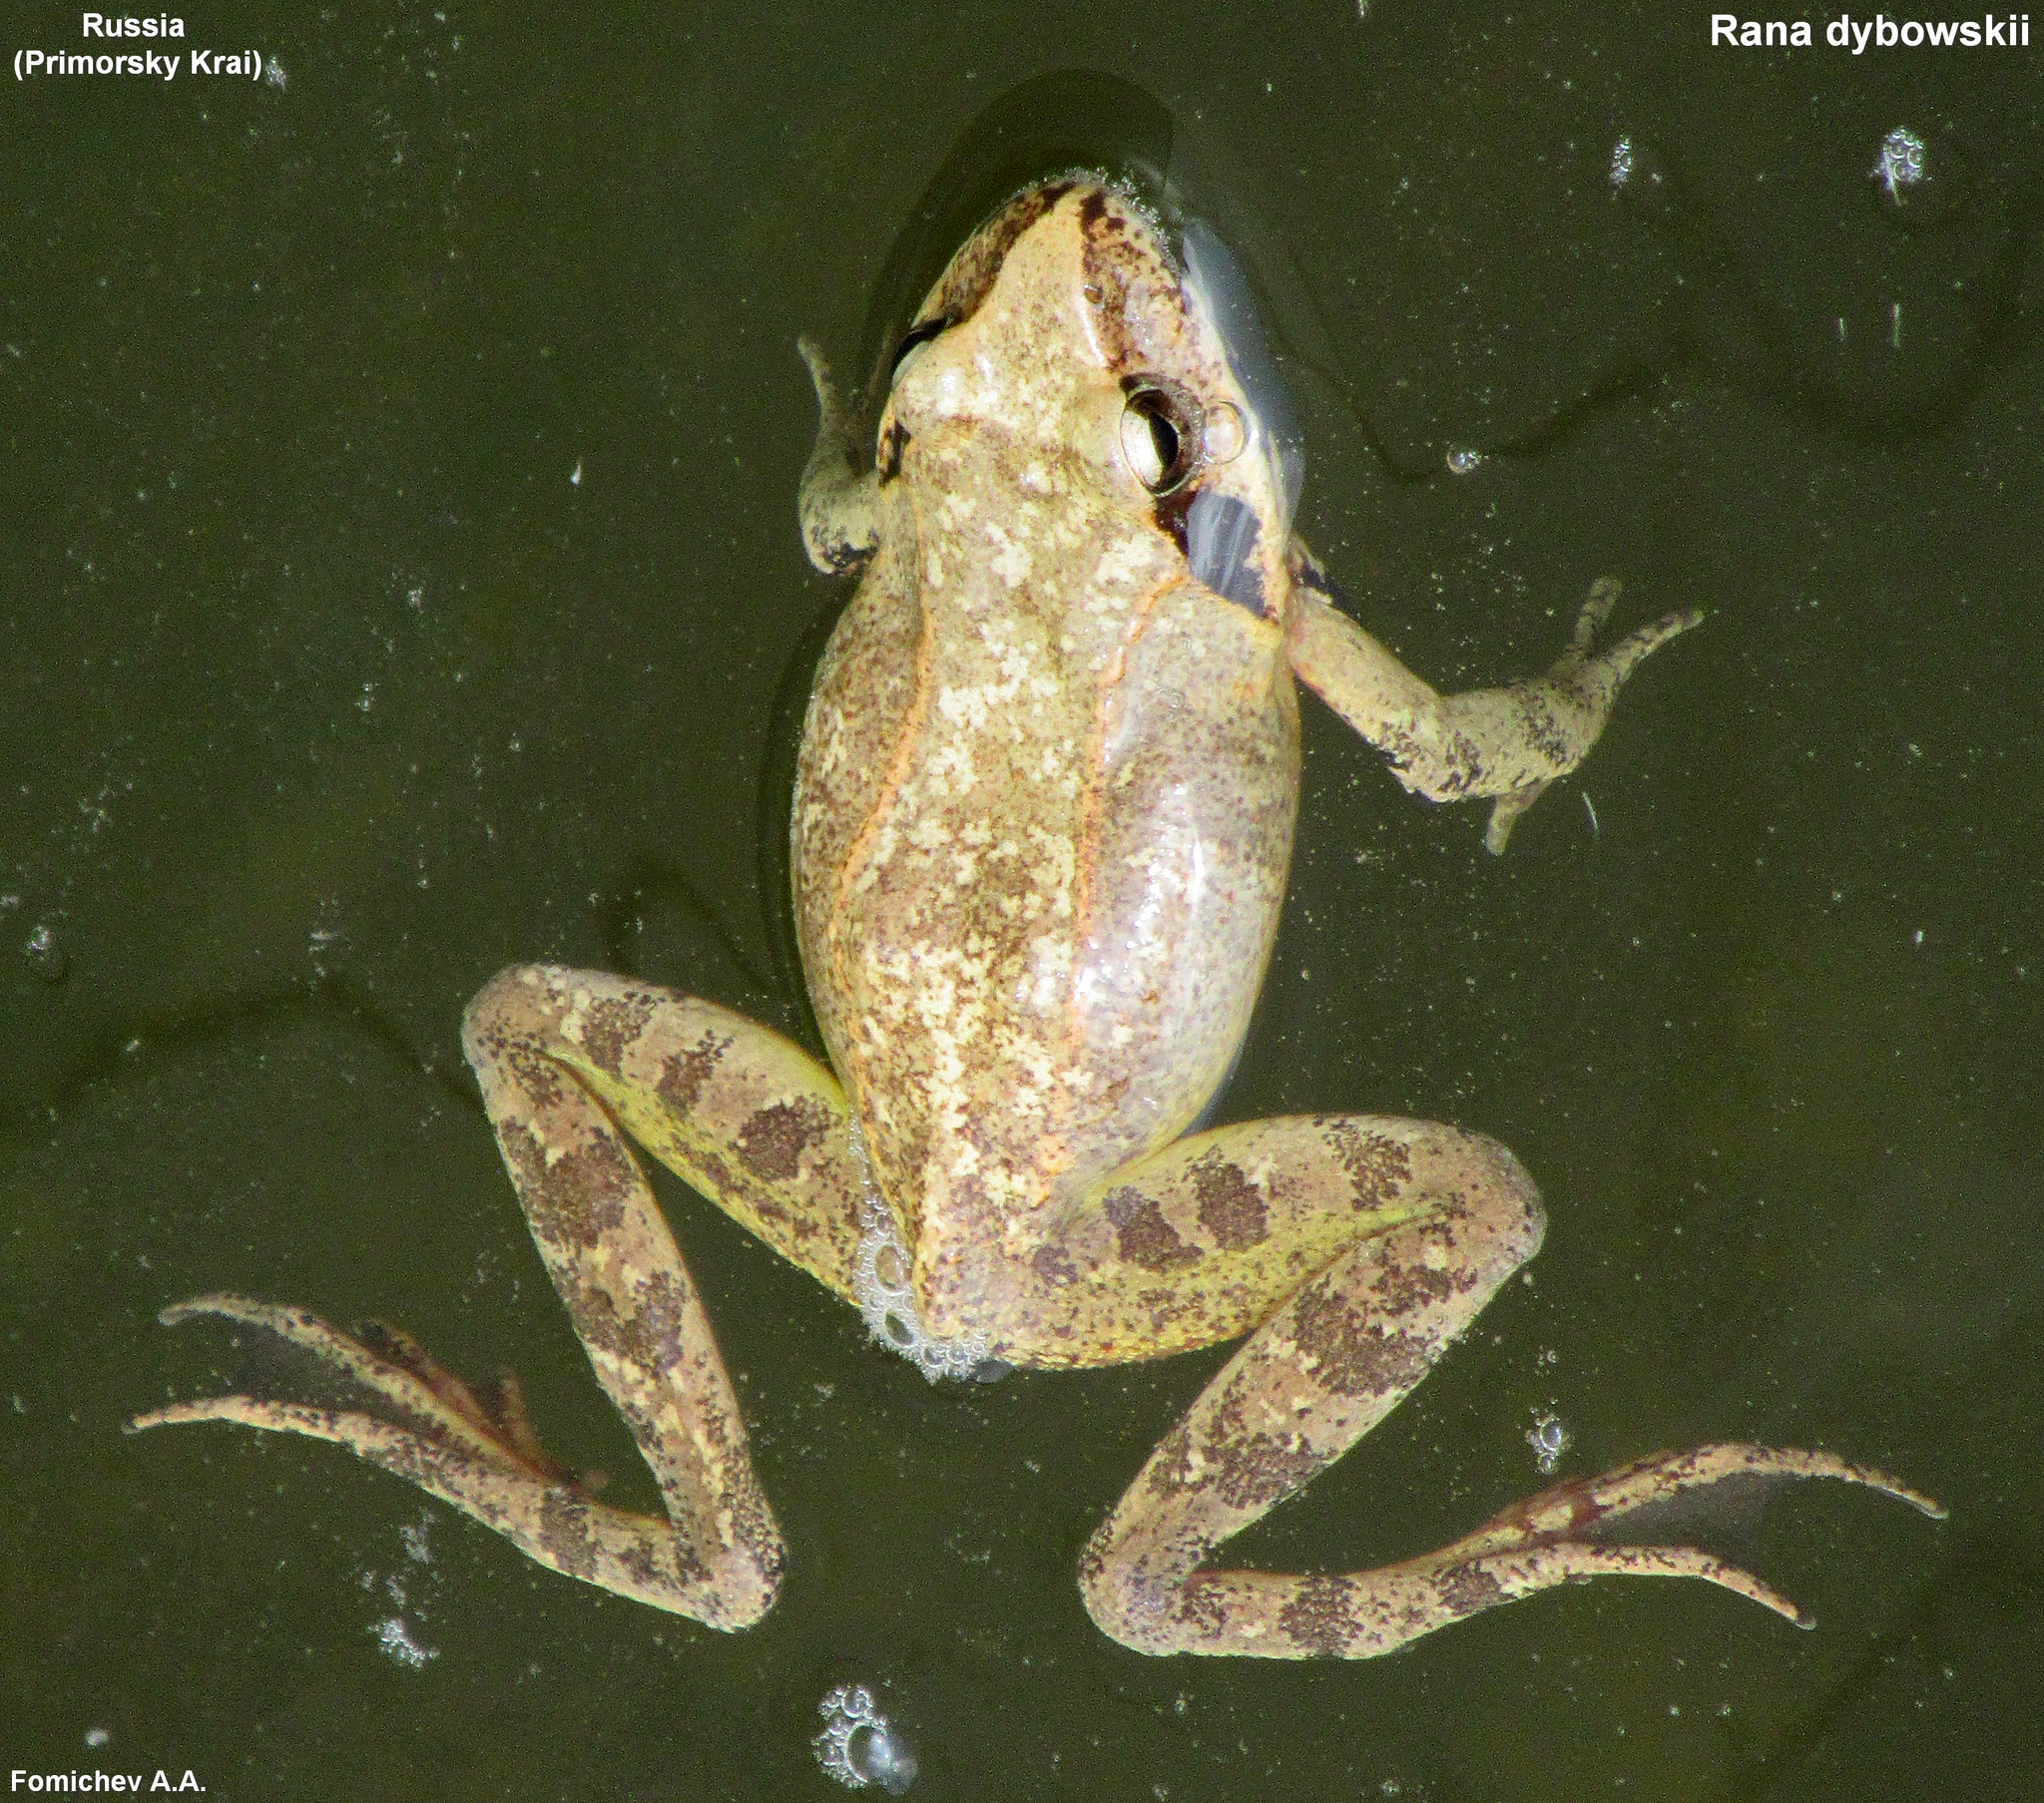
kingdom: Animalia
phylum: Chordata
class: Amphibia
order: Anura
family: Ranidae
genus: Rana
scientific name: Rana dybowskii
